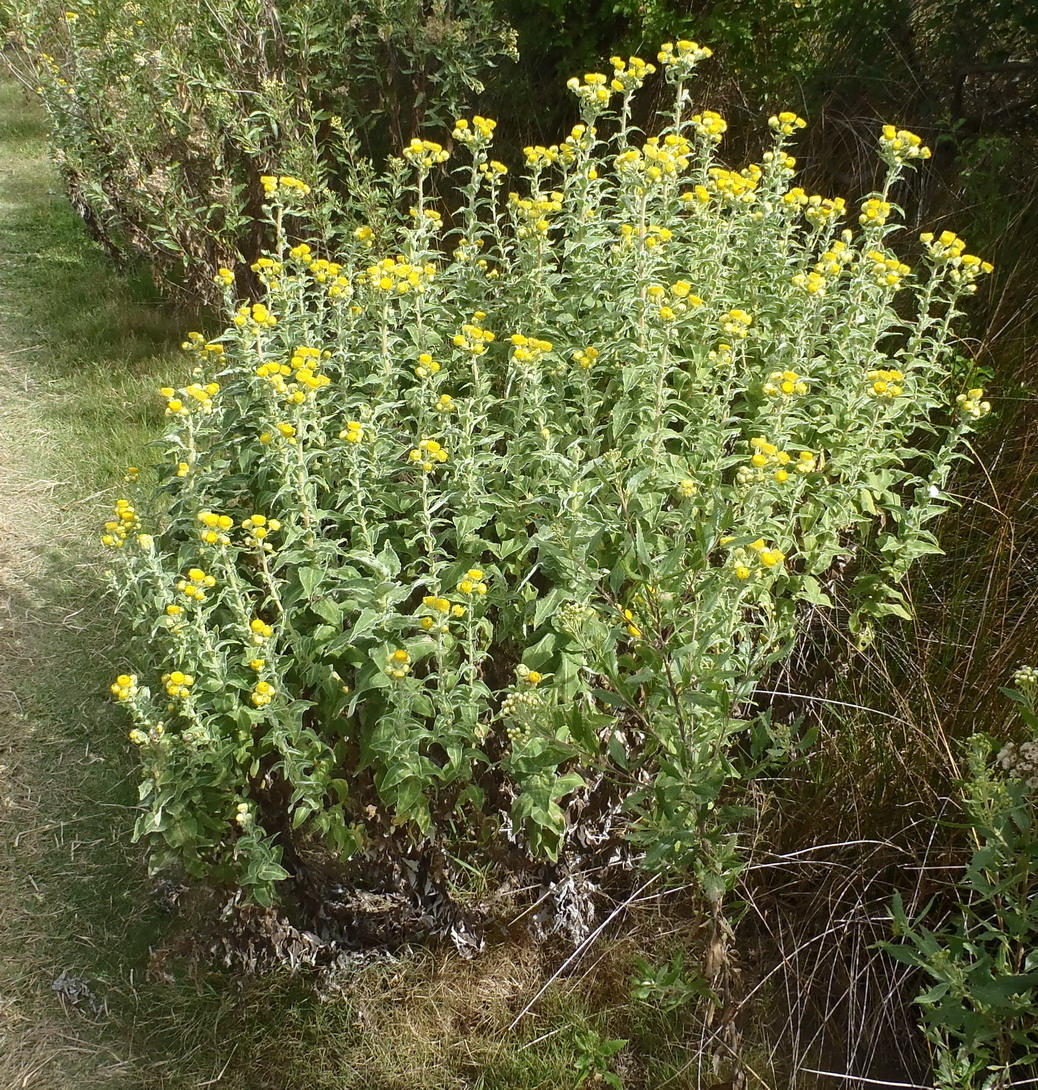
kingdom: Plantae
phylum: Tracheophyta
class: Magnoliopsida
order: Asterales
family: Asteraceae
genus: Helichrysum
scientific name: Helichrysum foetidum
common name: Stinking everlasting
